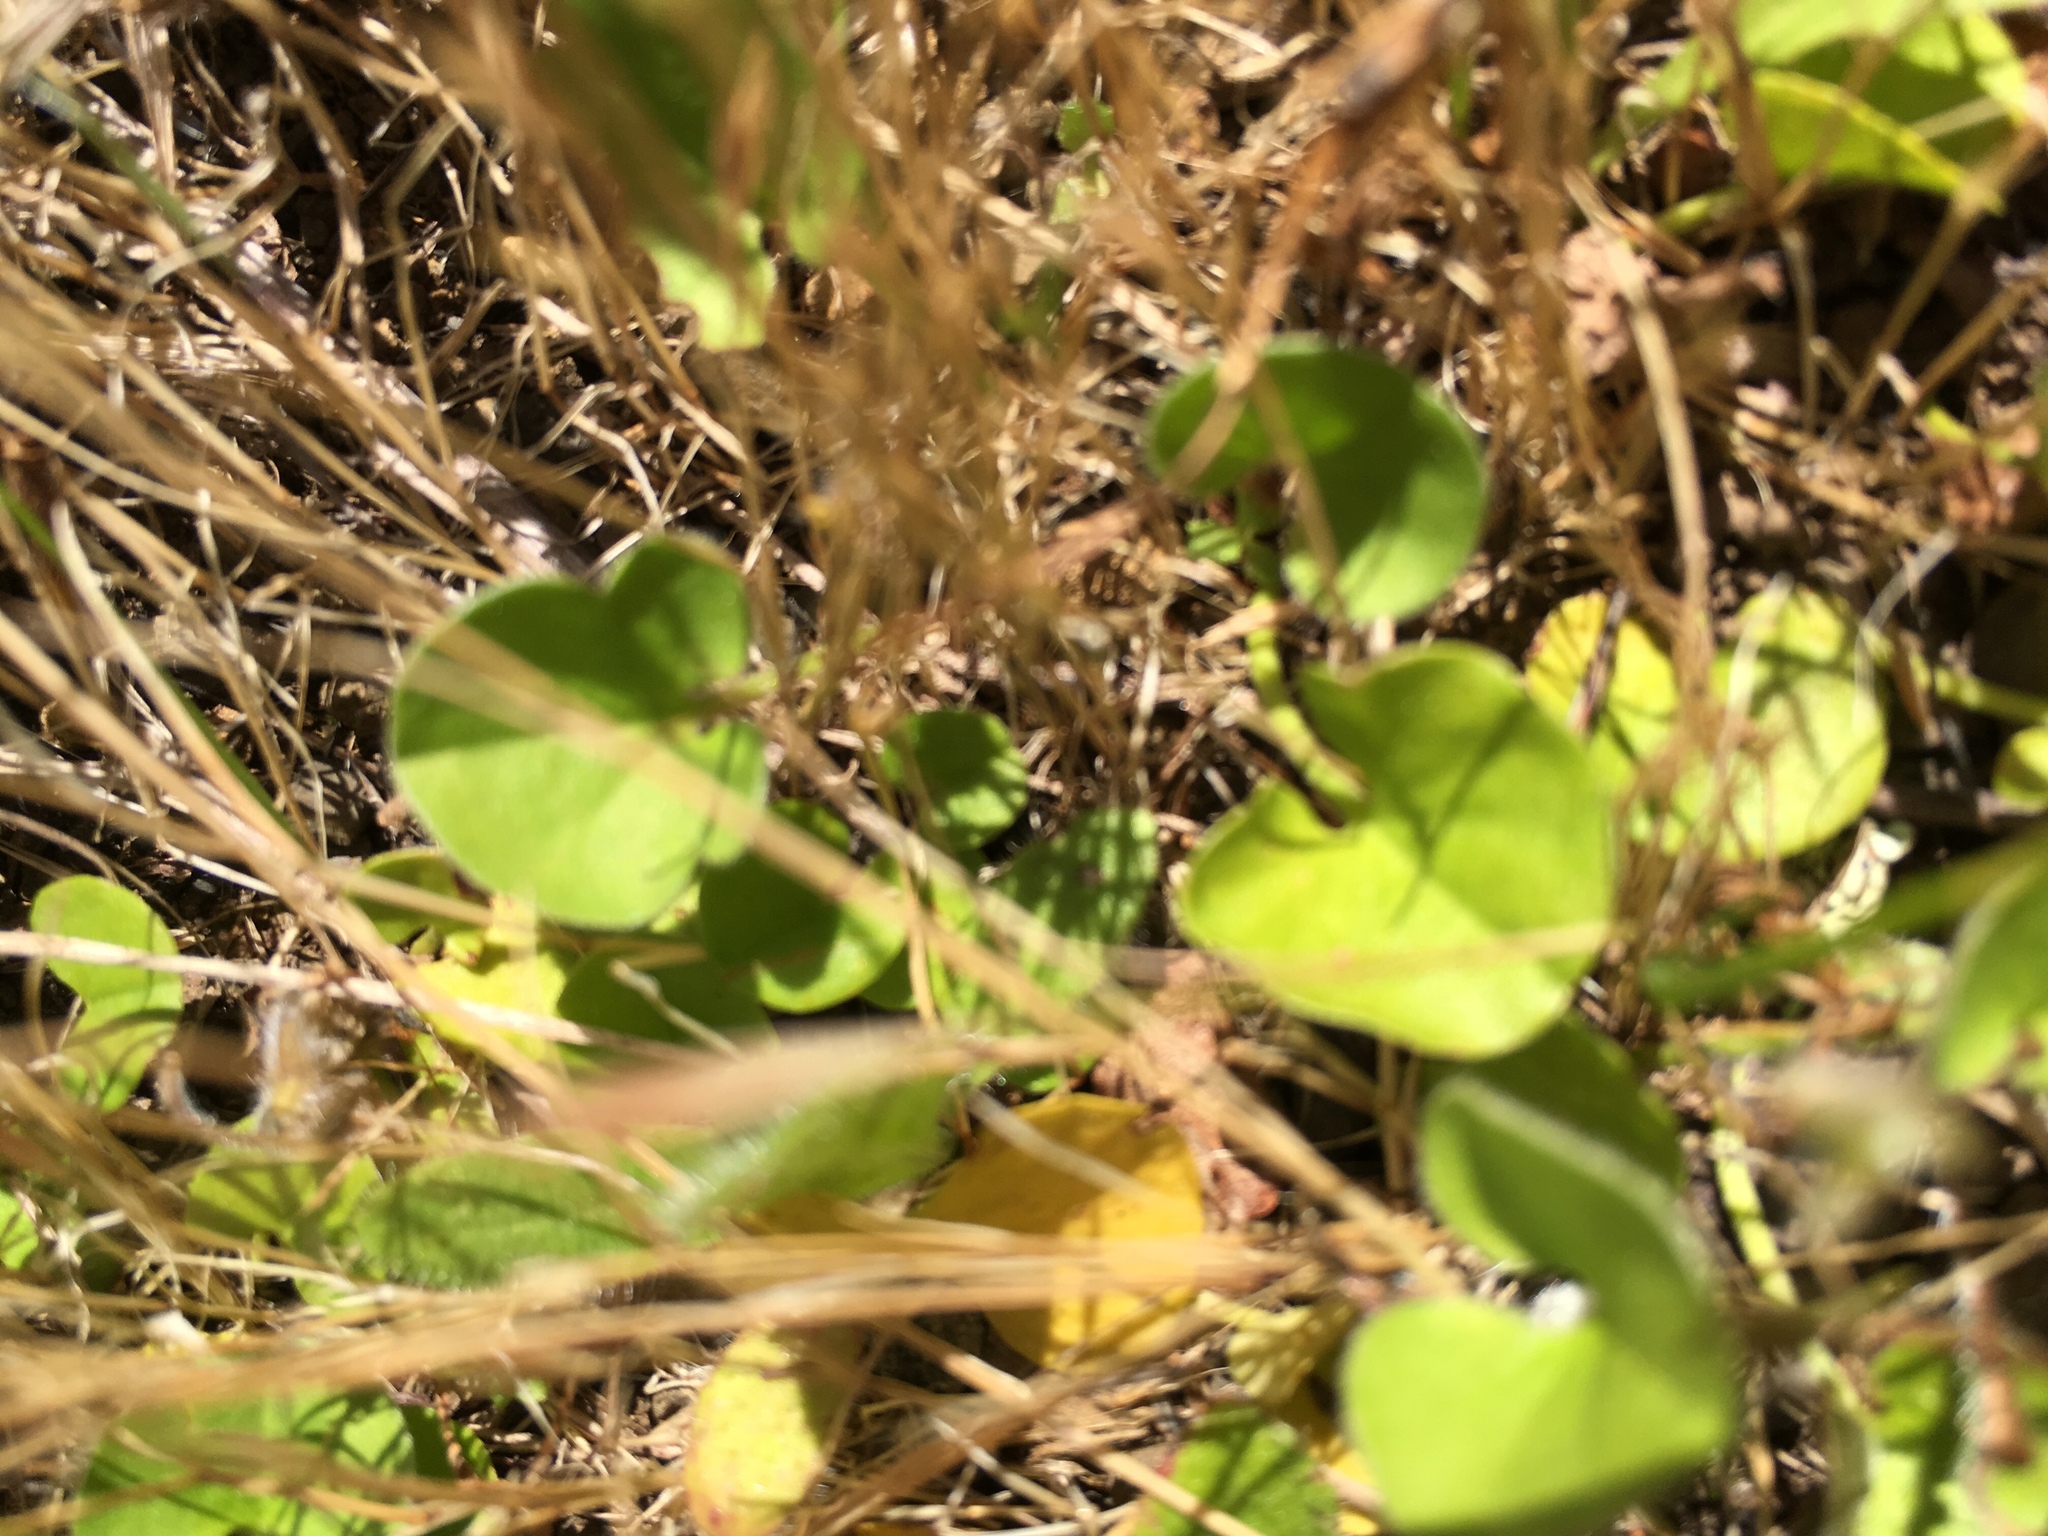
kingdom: Plantae
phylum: Tracheophyta
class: Magnoliopsida
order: Solanales
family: Convolvulaceae
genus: Dichondra
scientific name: Dichondra donelliana
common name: California ponysfoot
